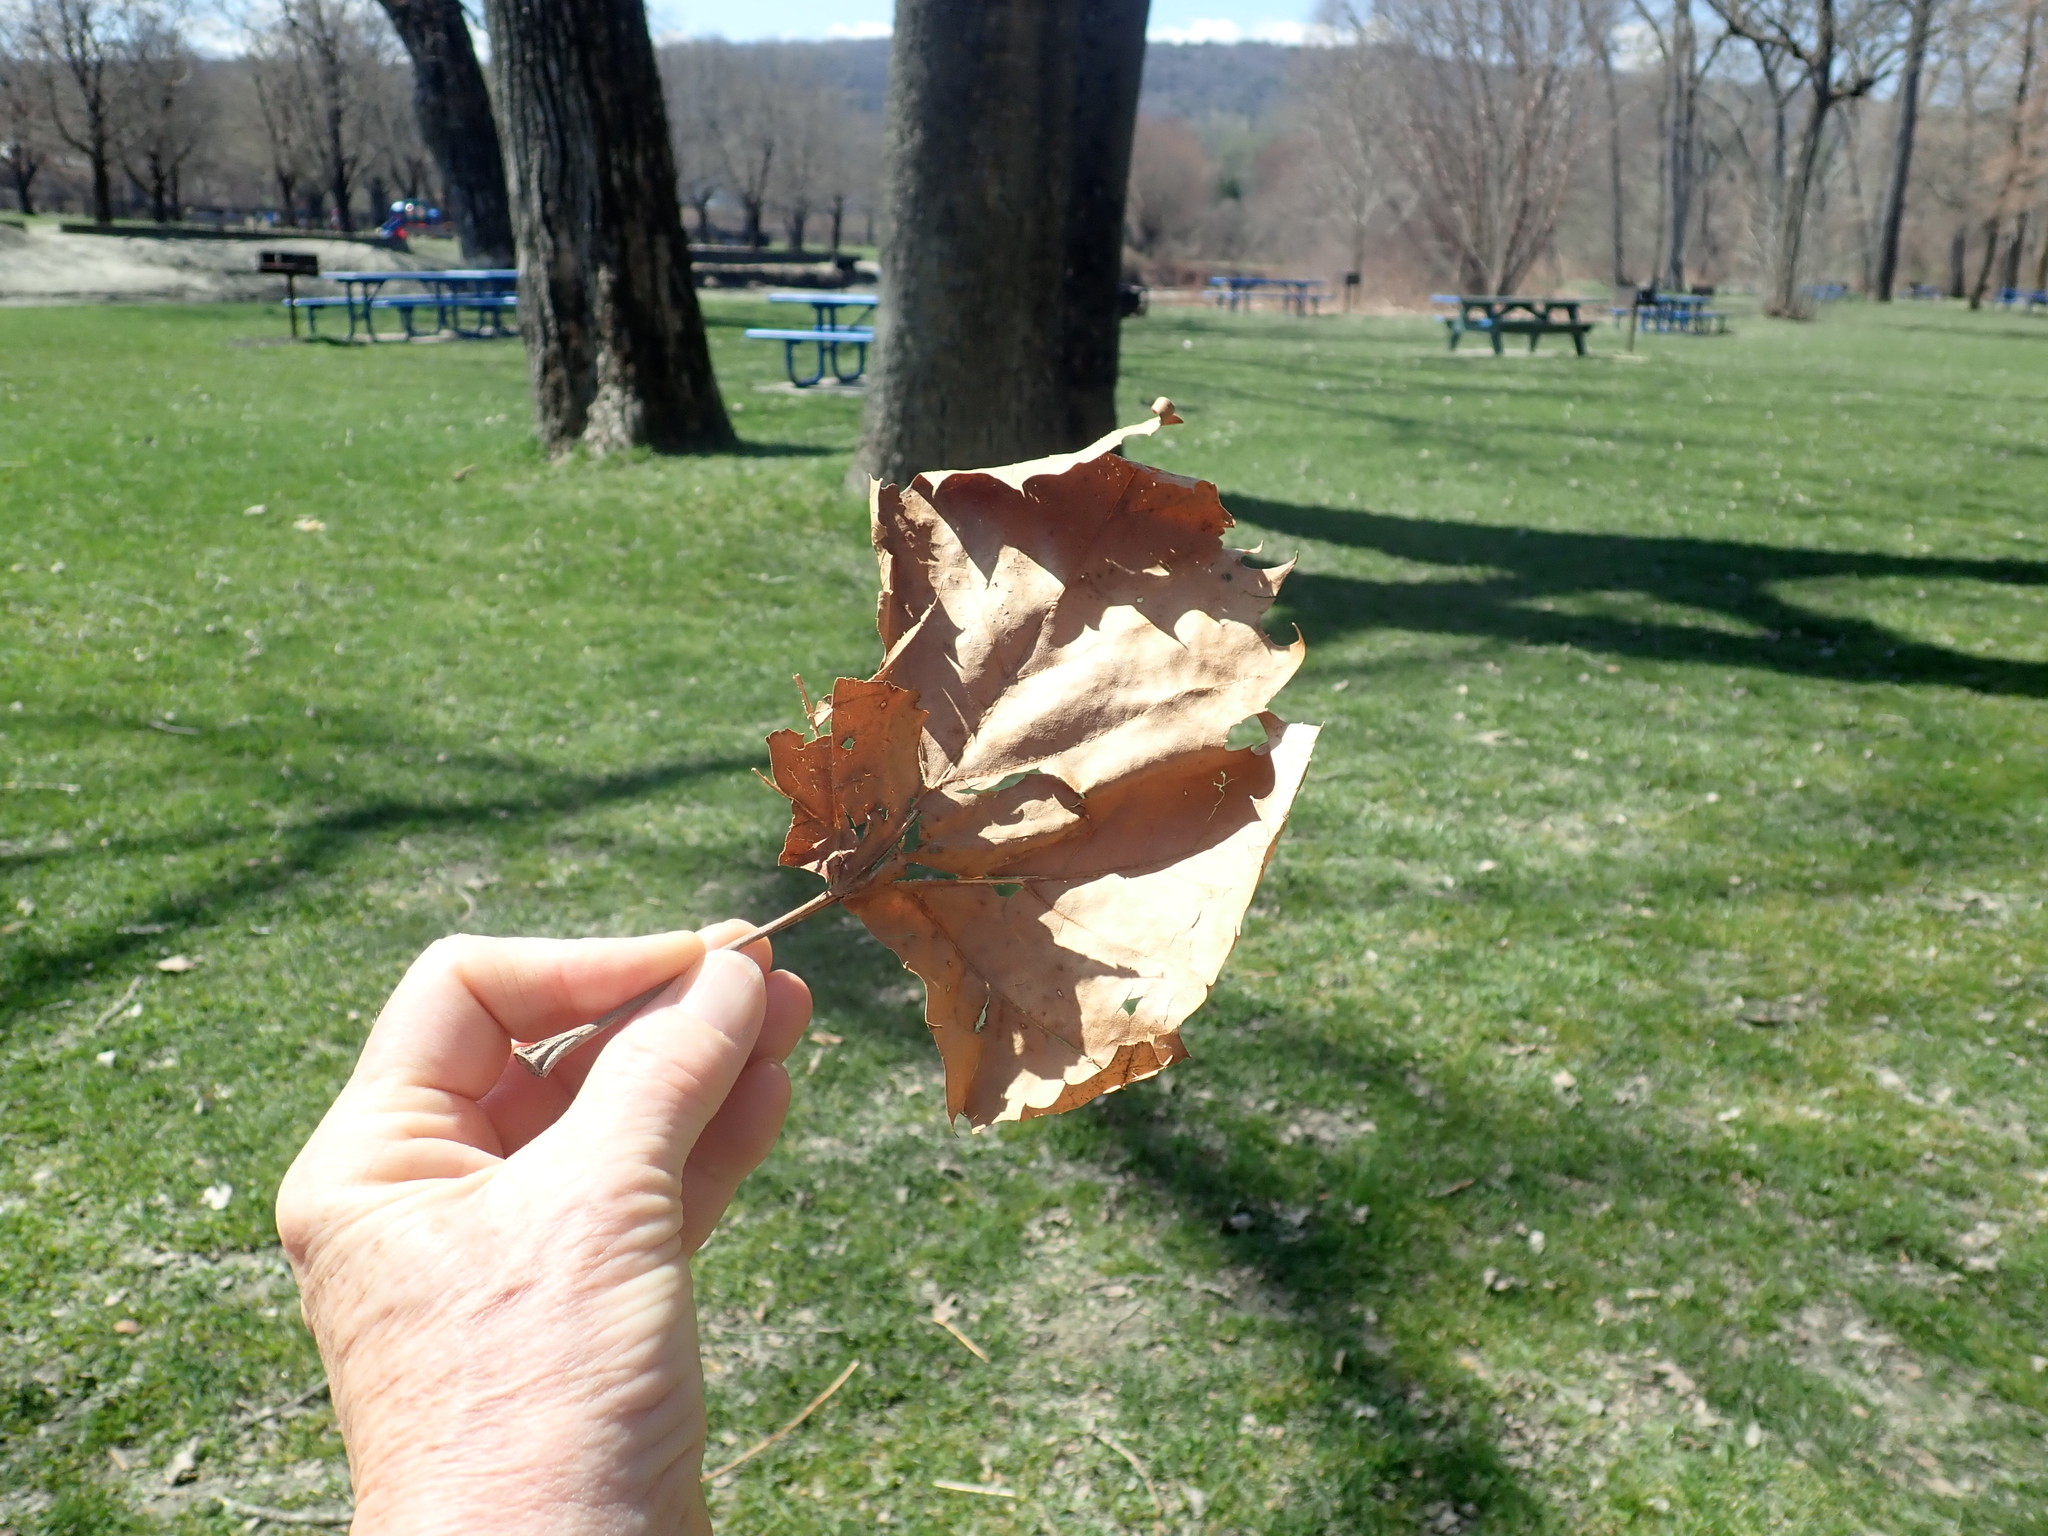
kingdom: Plantae
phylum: Tracheophyta
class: Magnoliopsida
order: Proteales
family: Platanaceae
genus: Platanus
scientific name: Platanus occidentalis
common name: American sycamore
